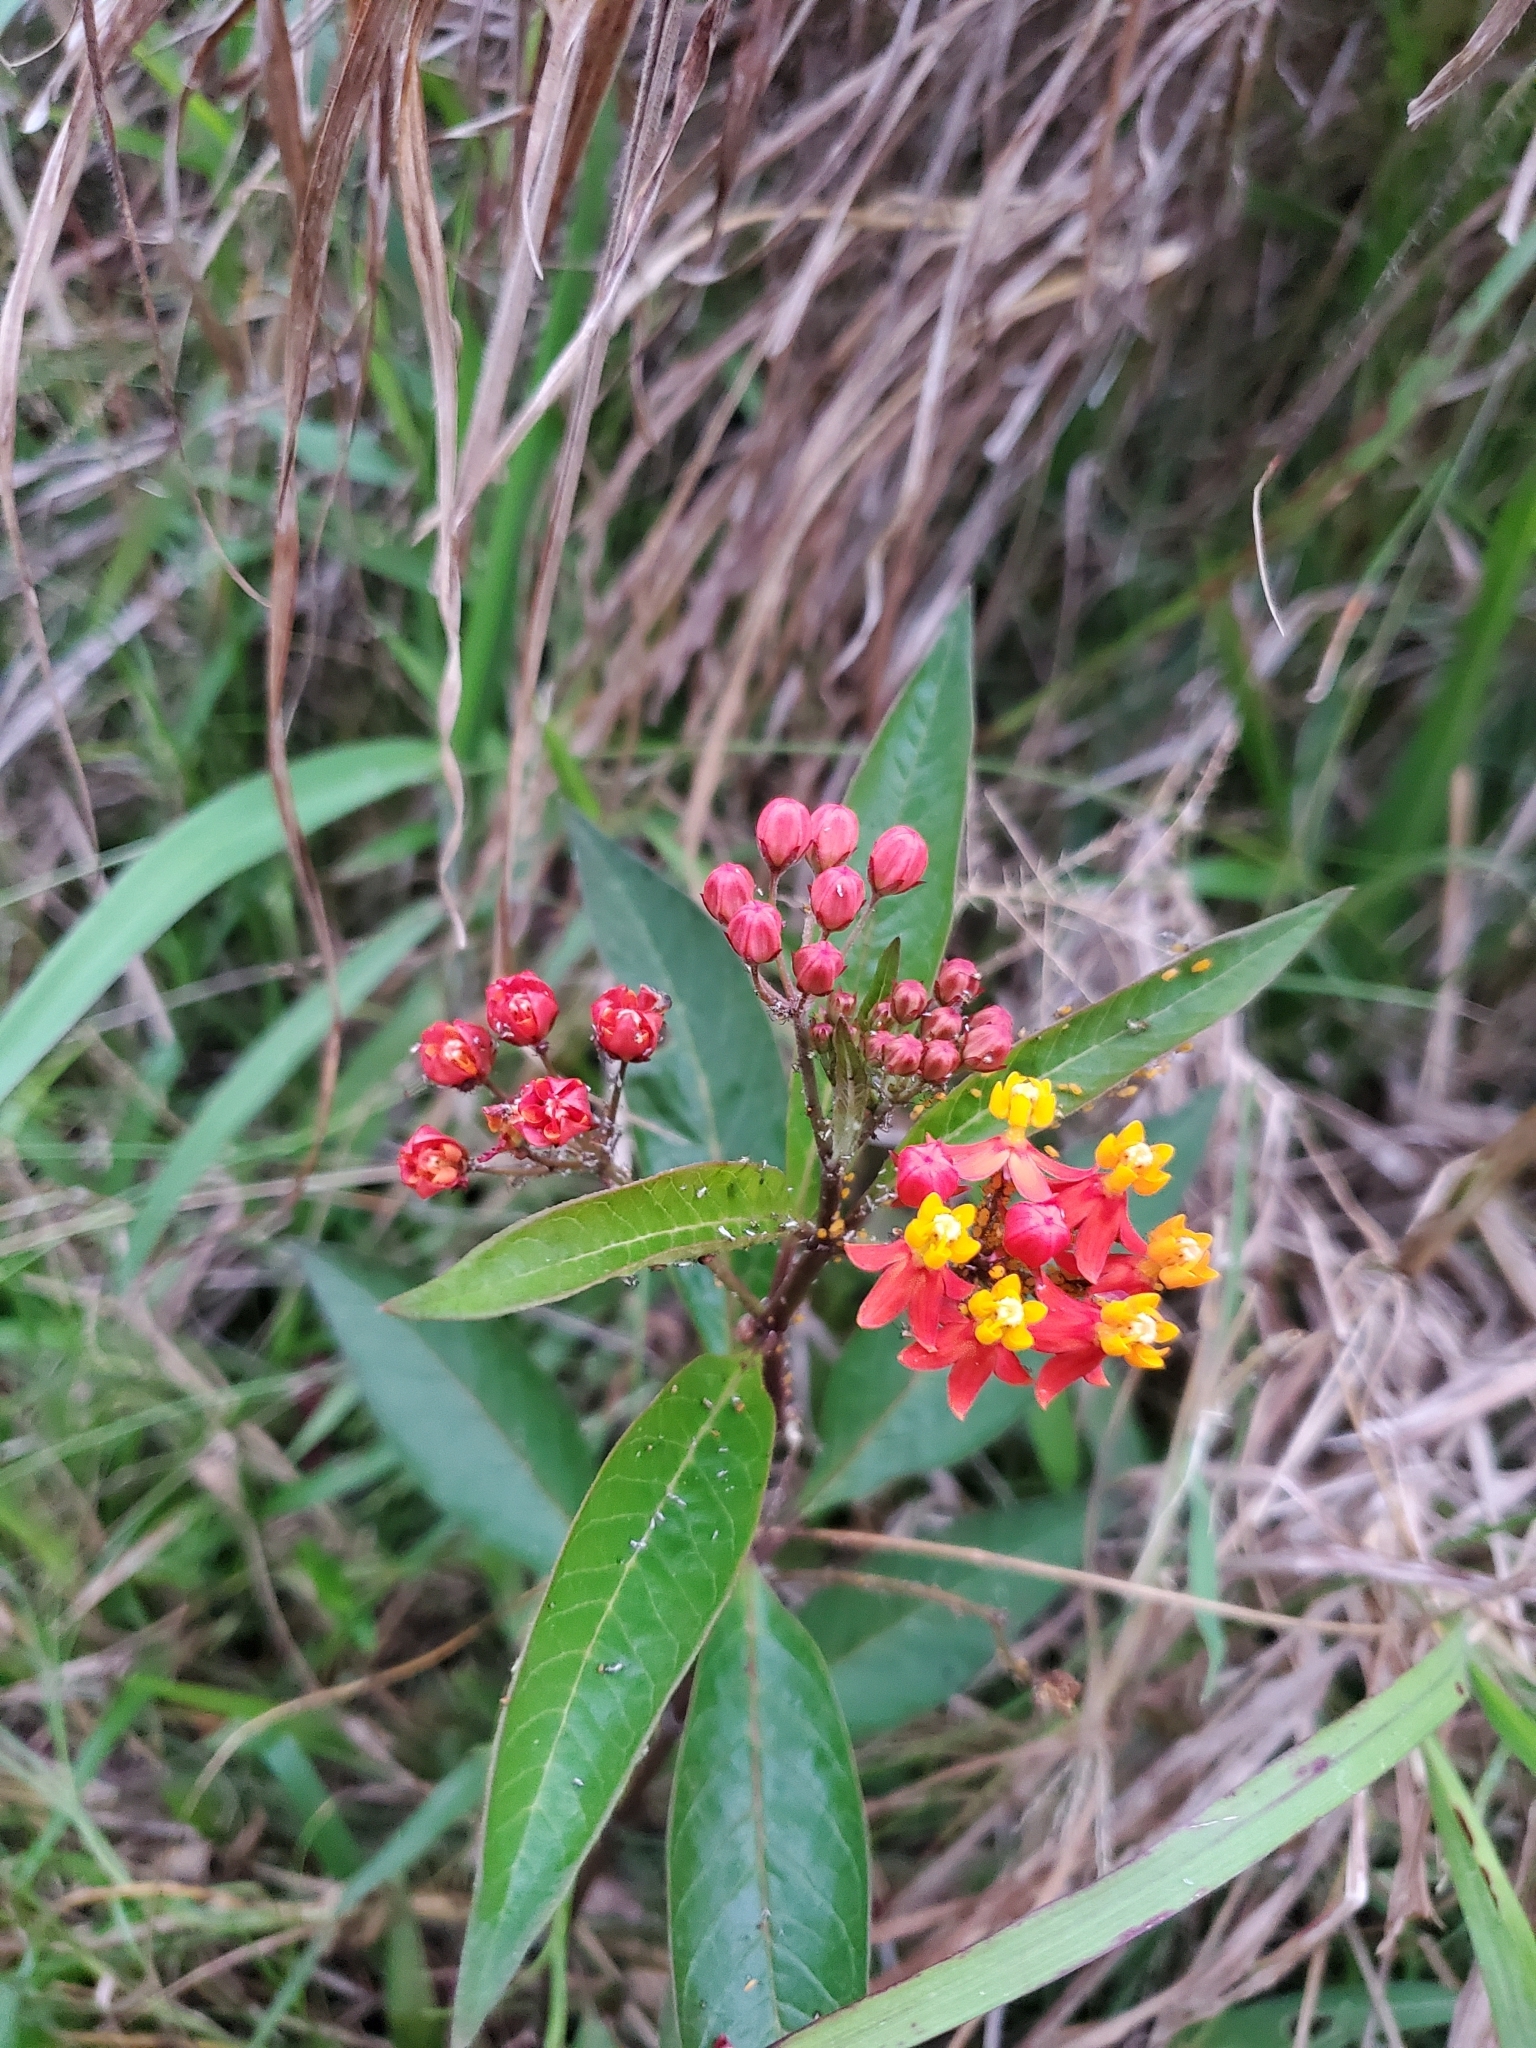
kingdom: Plantae
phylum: Tracheophyta
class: Magnoliopsida
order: Gentianales
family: Apocynaceae
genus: Asclepias
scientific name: Asclepias curassavica
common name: Bloodflower
